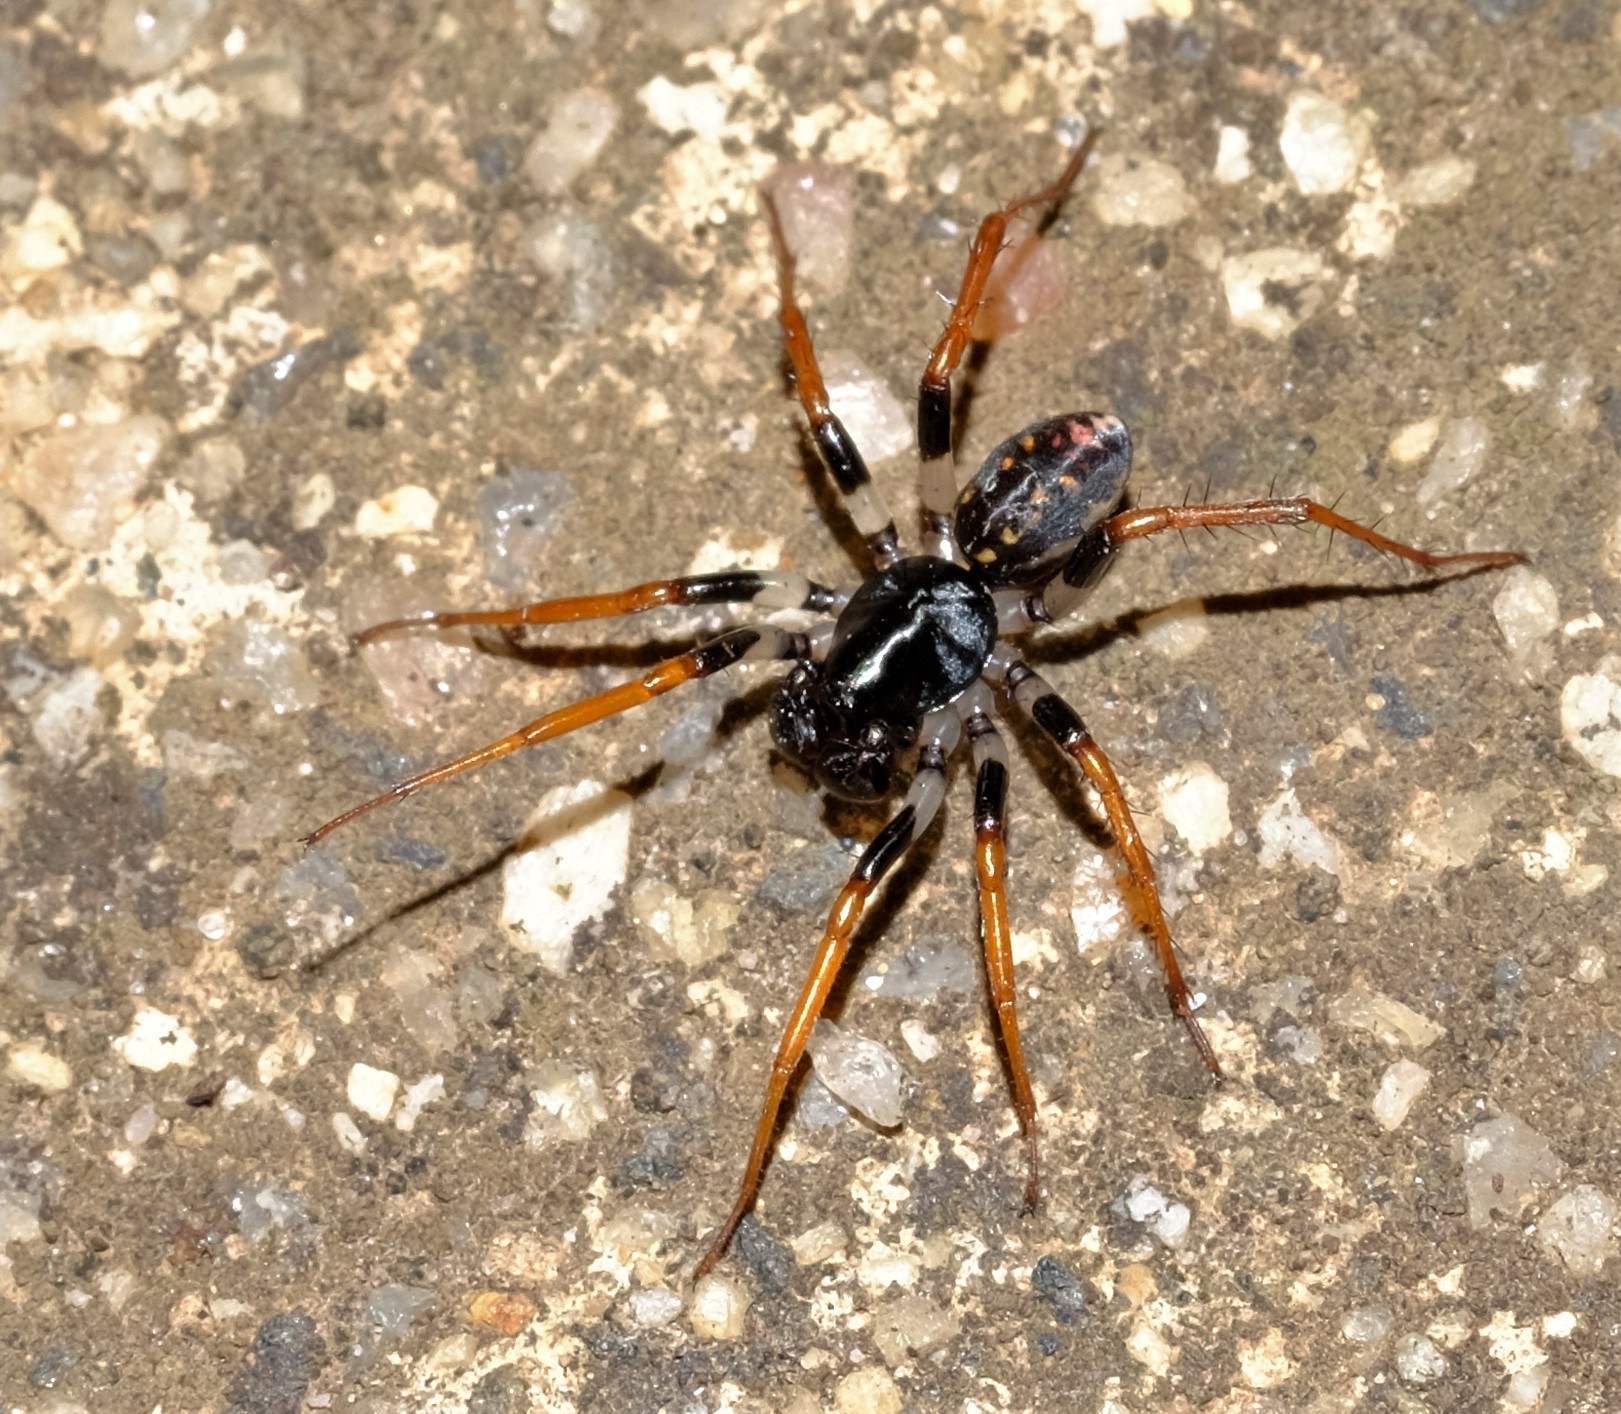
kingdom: Animalia
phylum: Arthropoda
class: Arachnida
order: Araneae
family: Zodariidae
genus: Habronestes
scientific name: Habronestes
